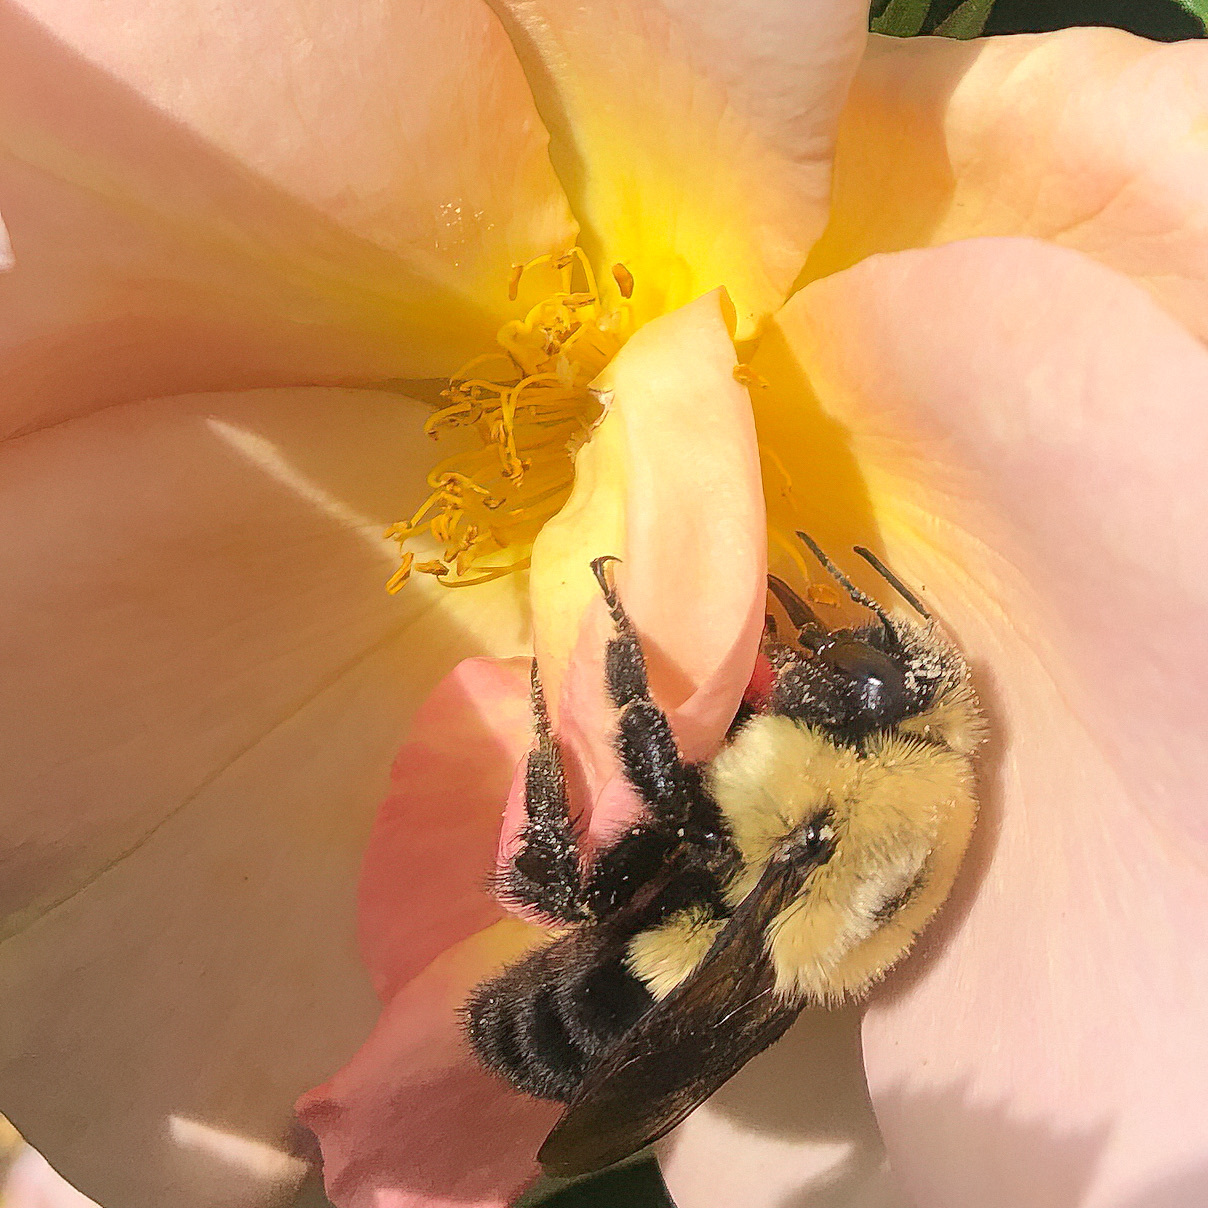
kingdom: Animalia
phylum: Arthropoda
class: Insecta
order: Hymenoptera
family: Apidae
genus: Bombus
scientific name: Bombus impatiens
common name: Common eastern bumble bee
